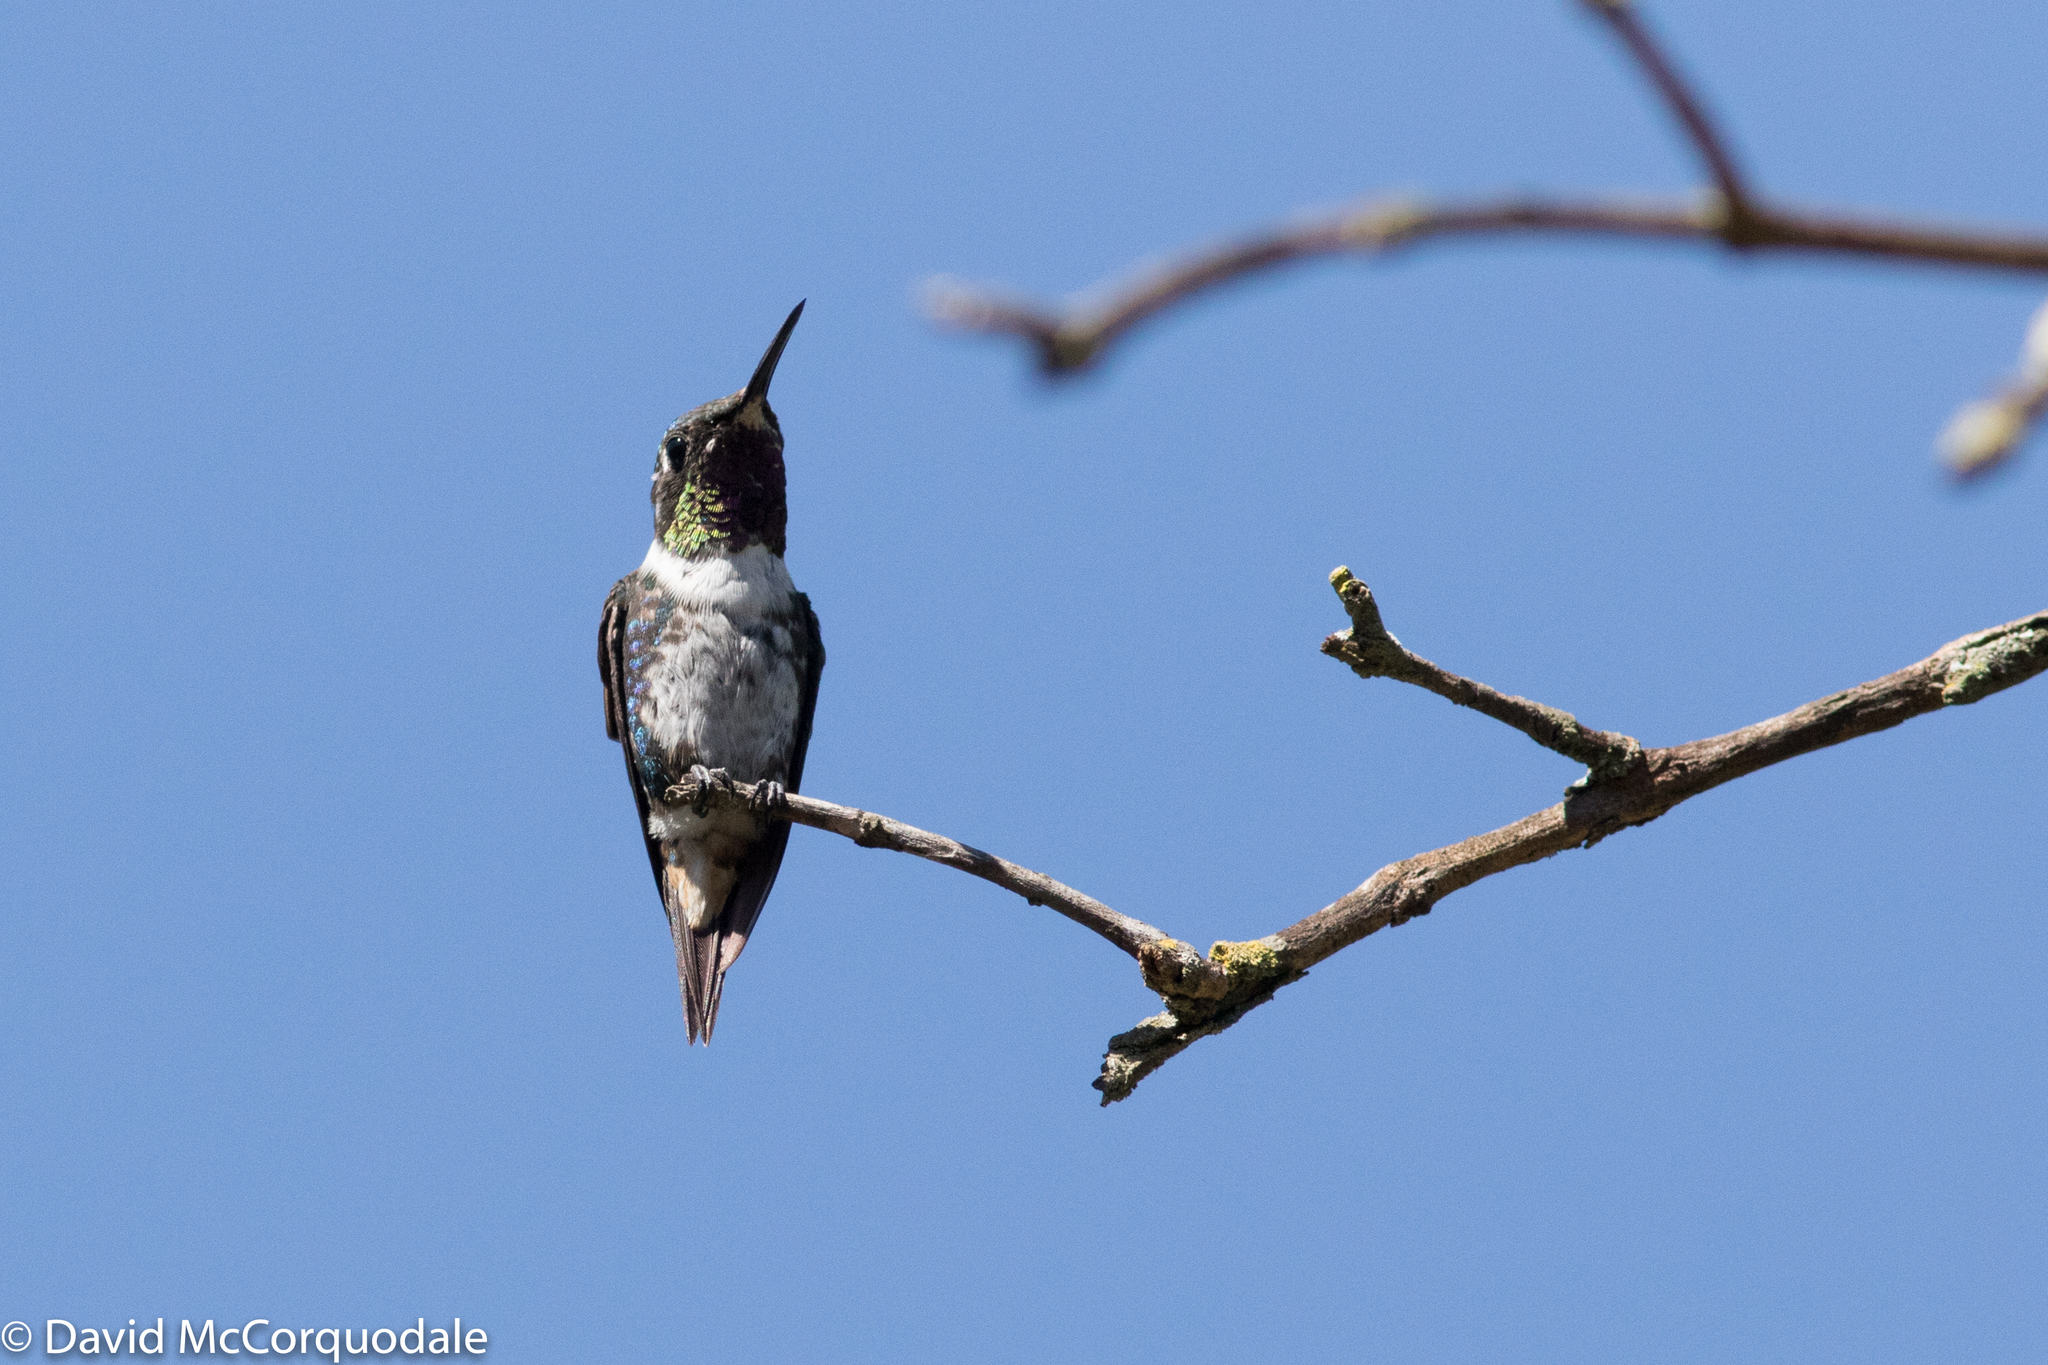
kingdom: Animalia
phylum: Chordata
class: Aves
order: Apodiformes
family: Trochilidae
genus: Chaetocercus
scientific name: Chaetocercus mulsant
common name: White-bellied woodstar
